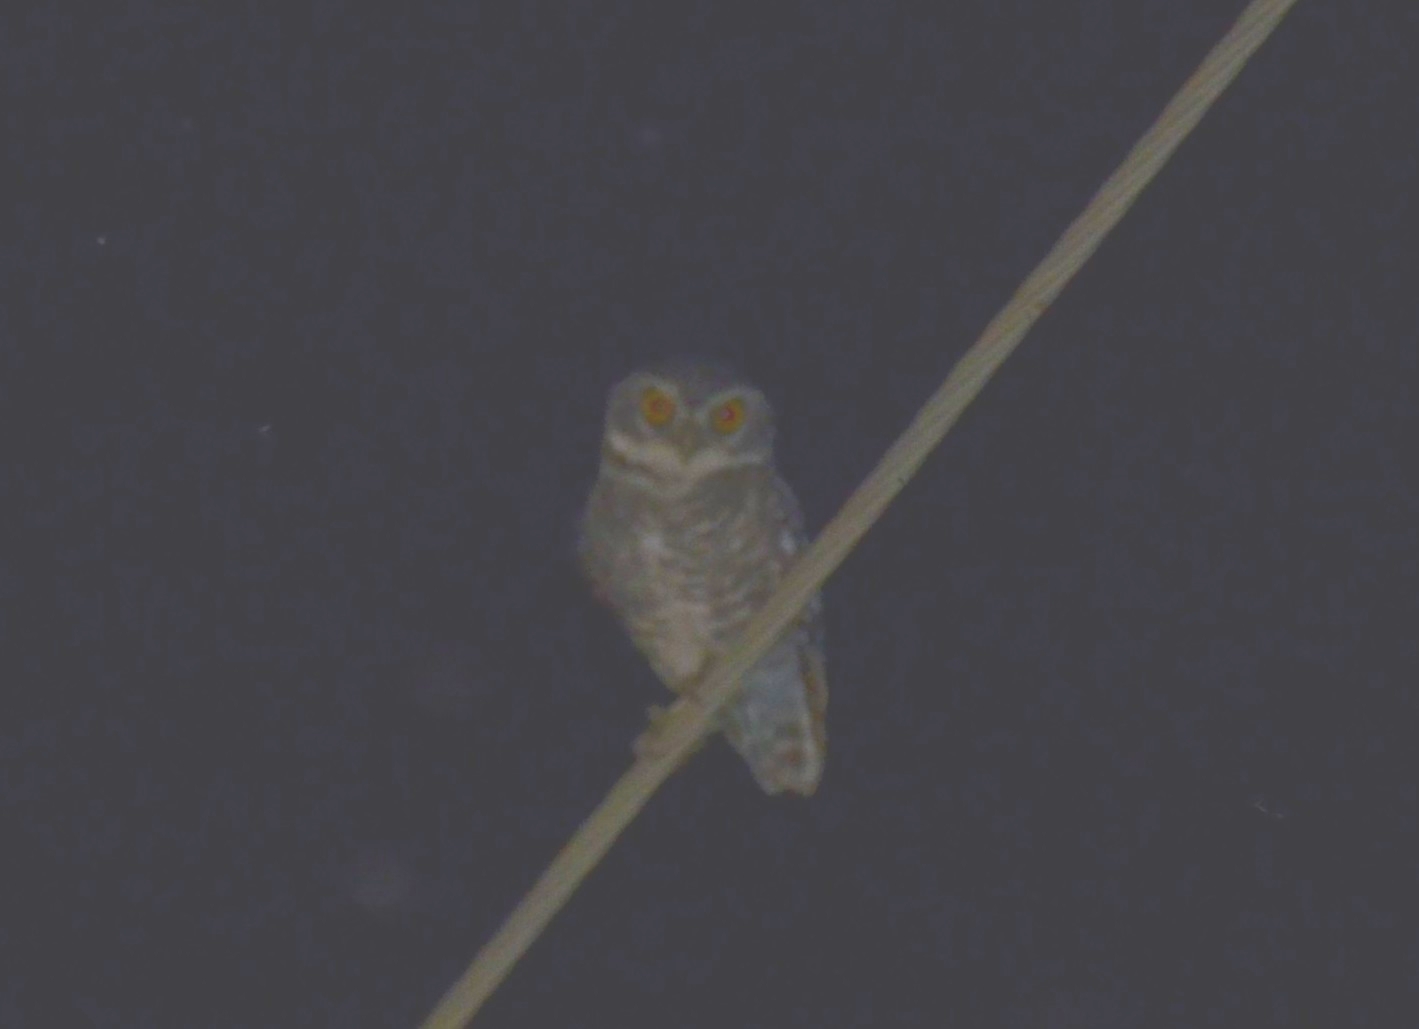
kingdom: Animalia
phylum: Chordata
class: Aves
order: Strigiformes
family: Strigidae
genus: Athene
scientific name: Athene brama
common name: Spotted owlet
